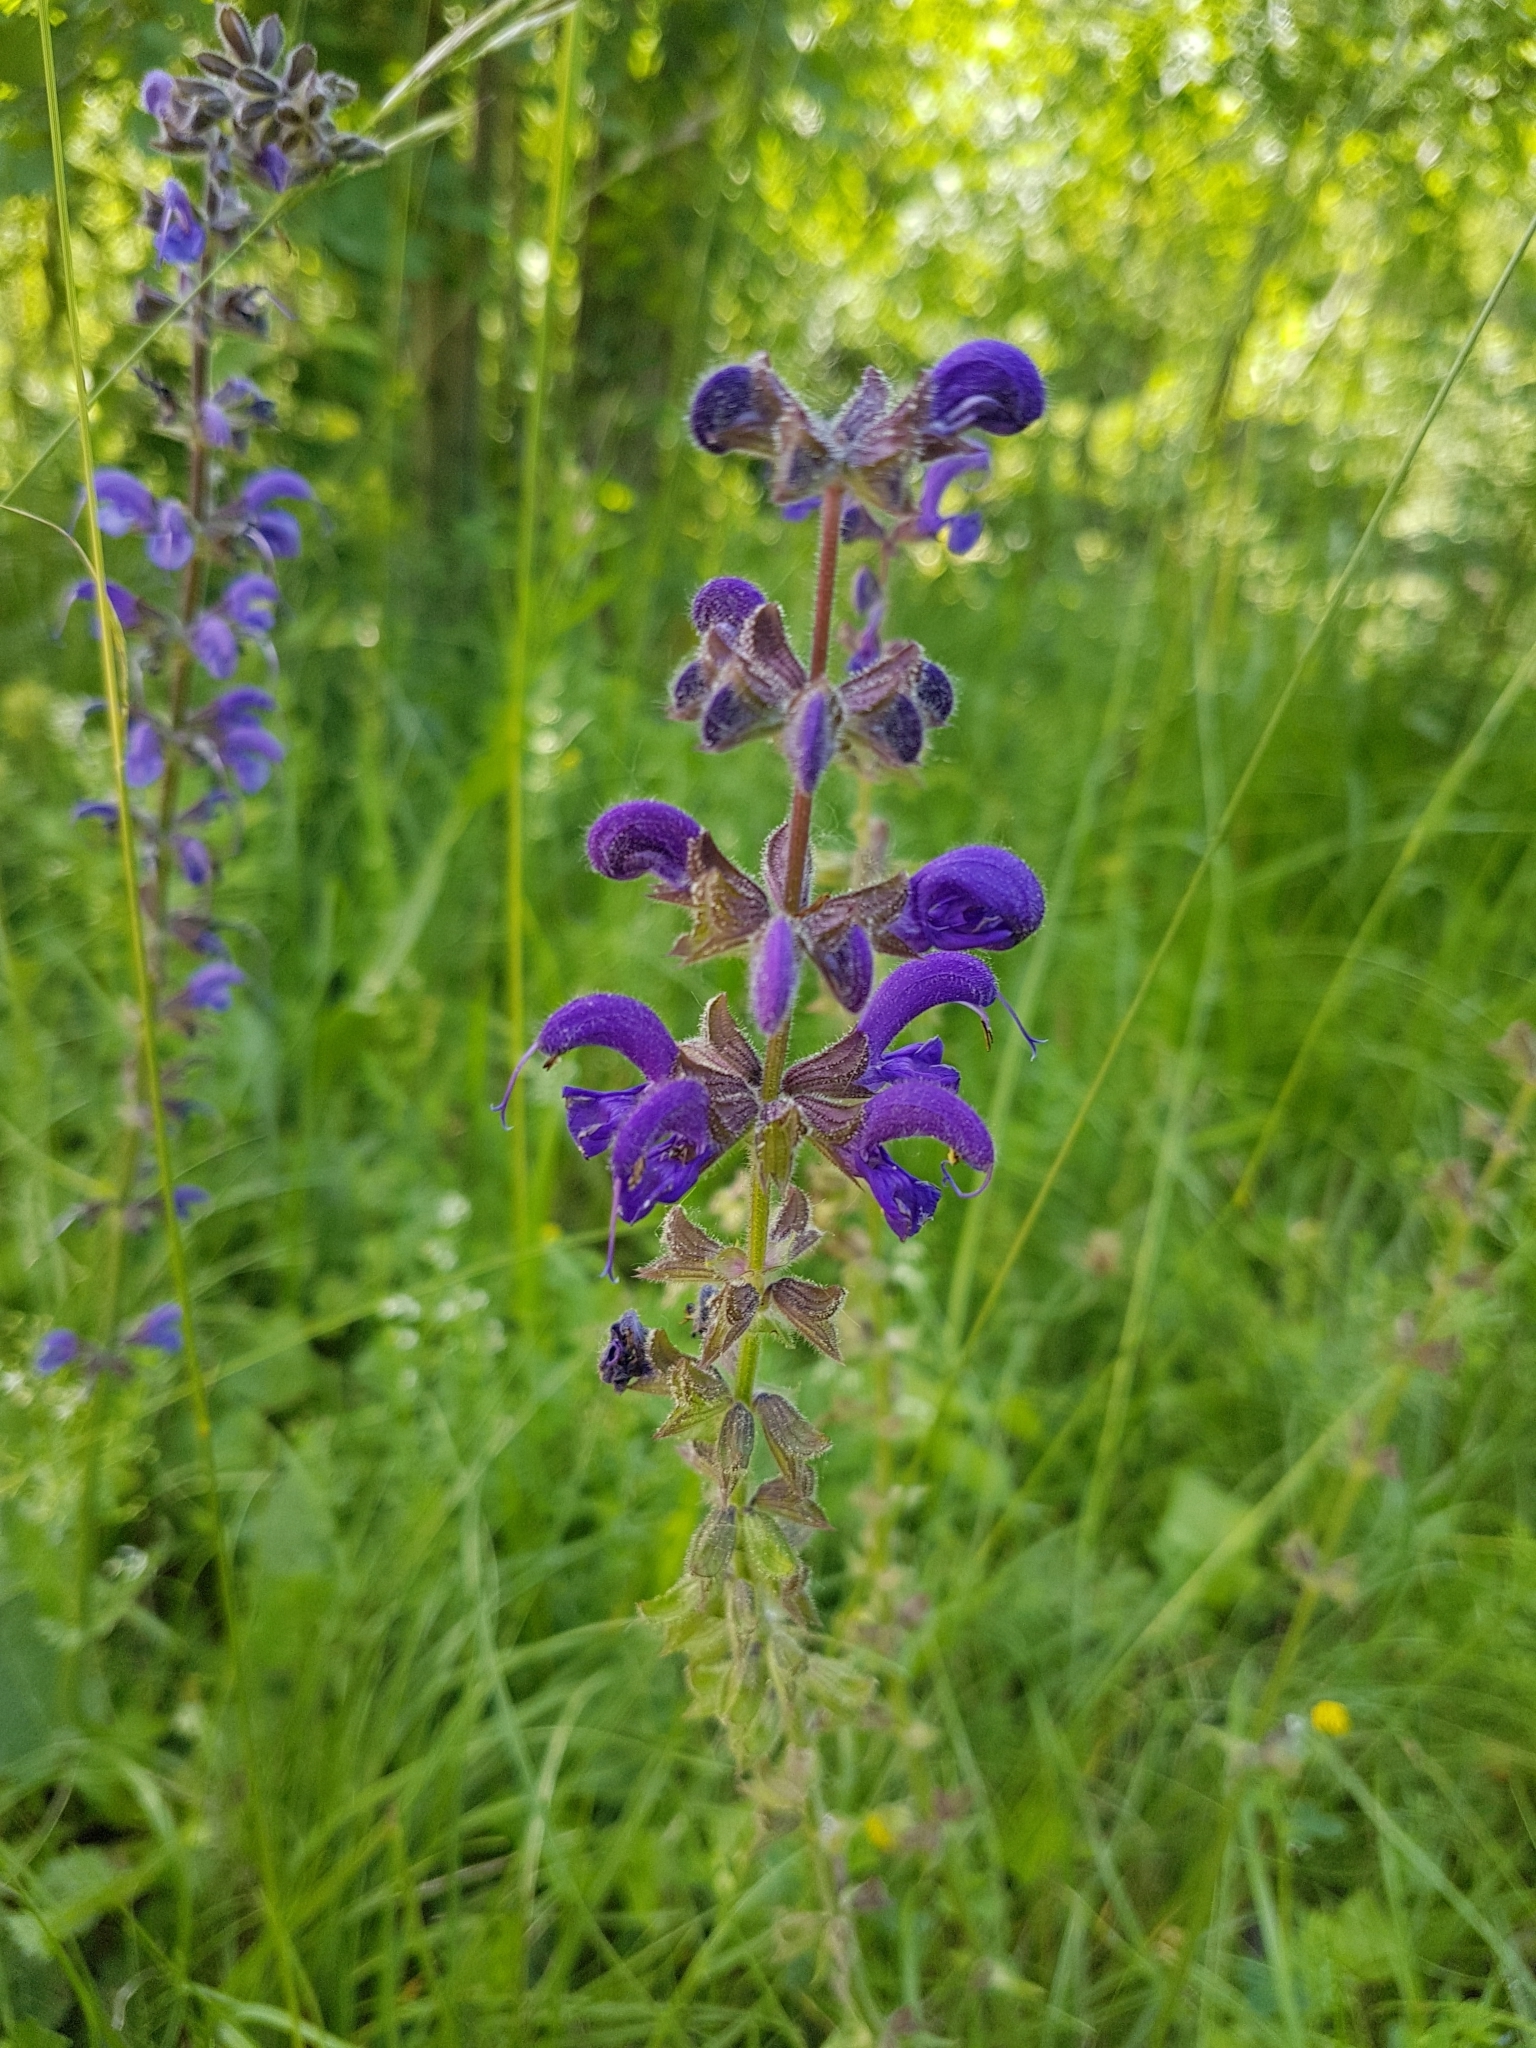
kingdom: Plantae
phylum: Tracheophyta
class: Magnoliopsida
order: Lamiales
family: Lamiaceae
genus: Salvia
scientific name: Salvia pratensis
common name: Meadow sage
